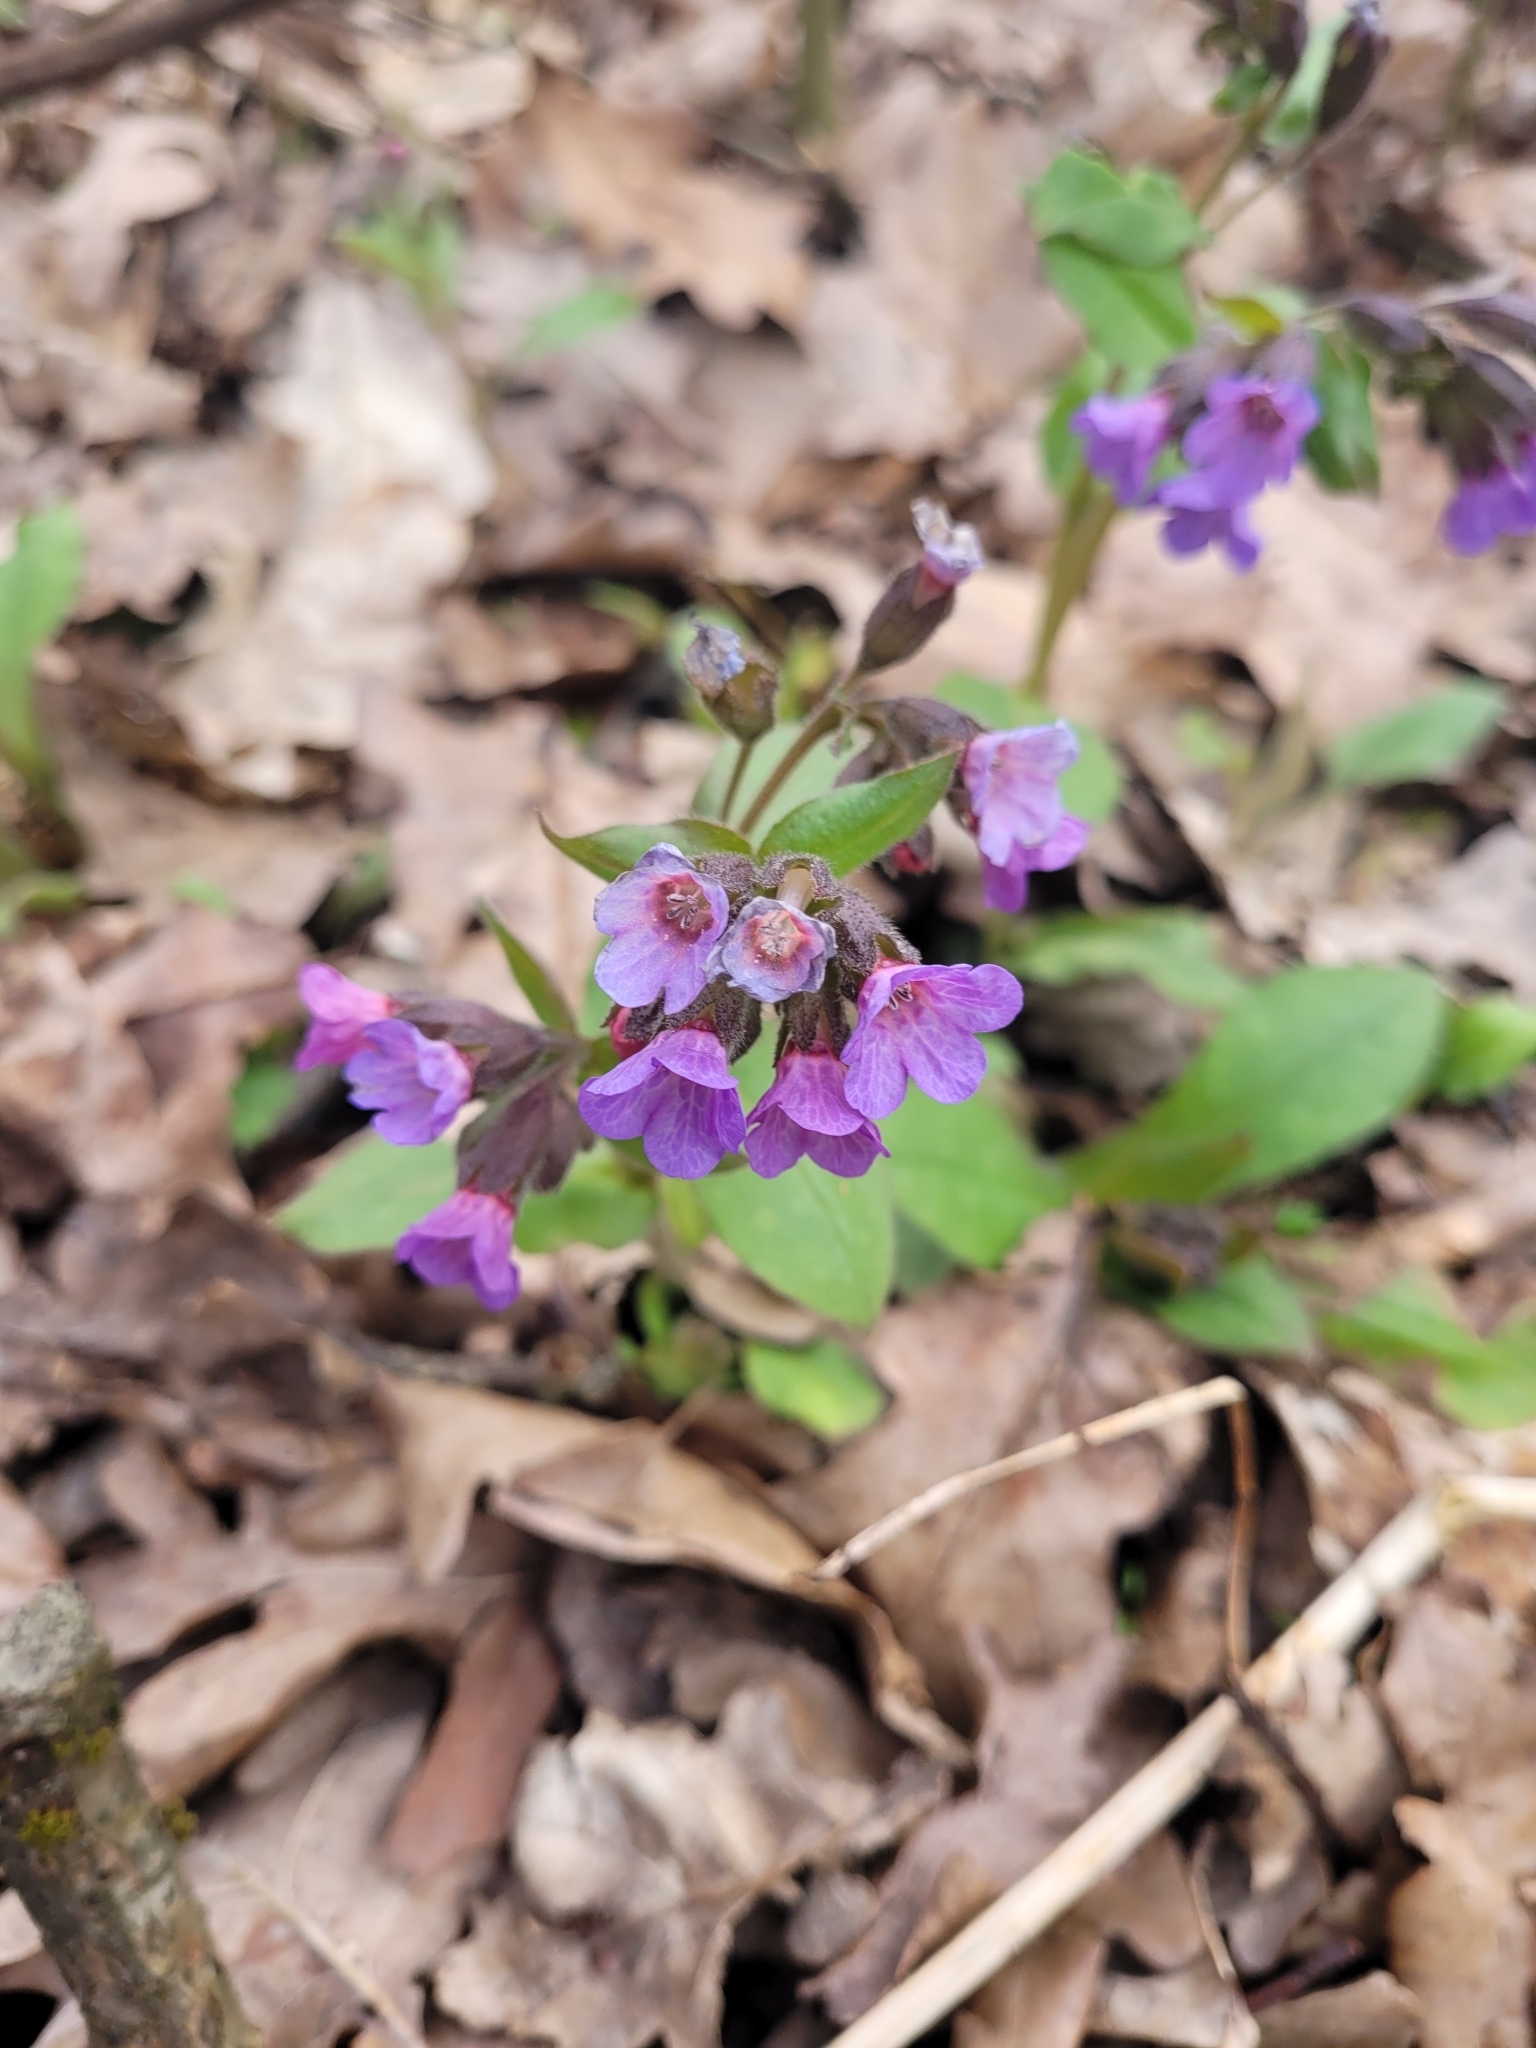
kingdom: Plantae
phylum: Tracheophyta
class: Magnoliopsida
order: Boraginales
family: Boraginaceae
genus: Pulmonaria
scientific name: Pulmonaria obscura
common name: Suffolk lungwort
